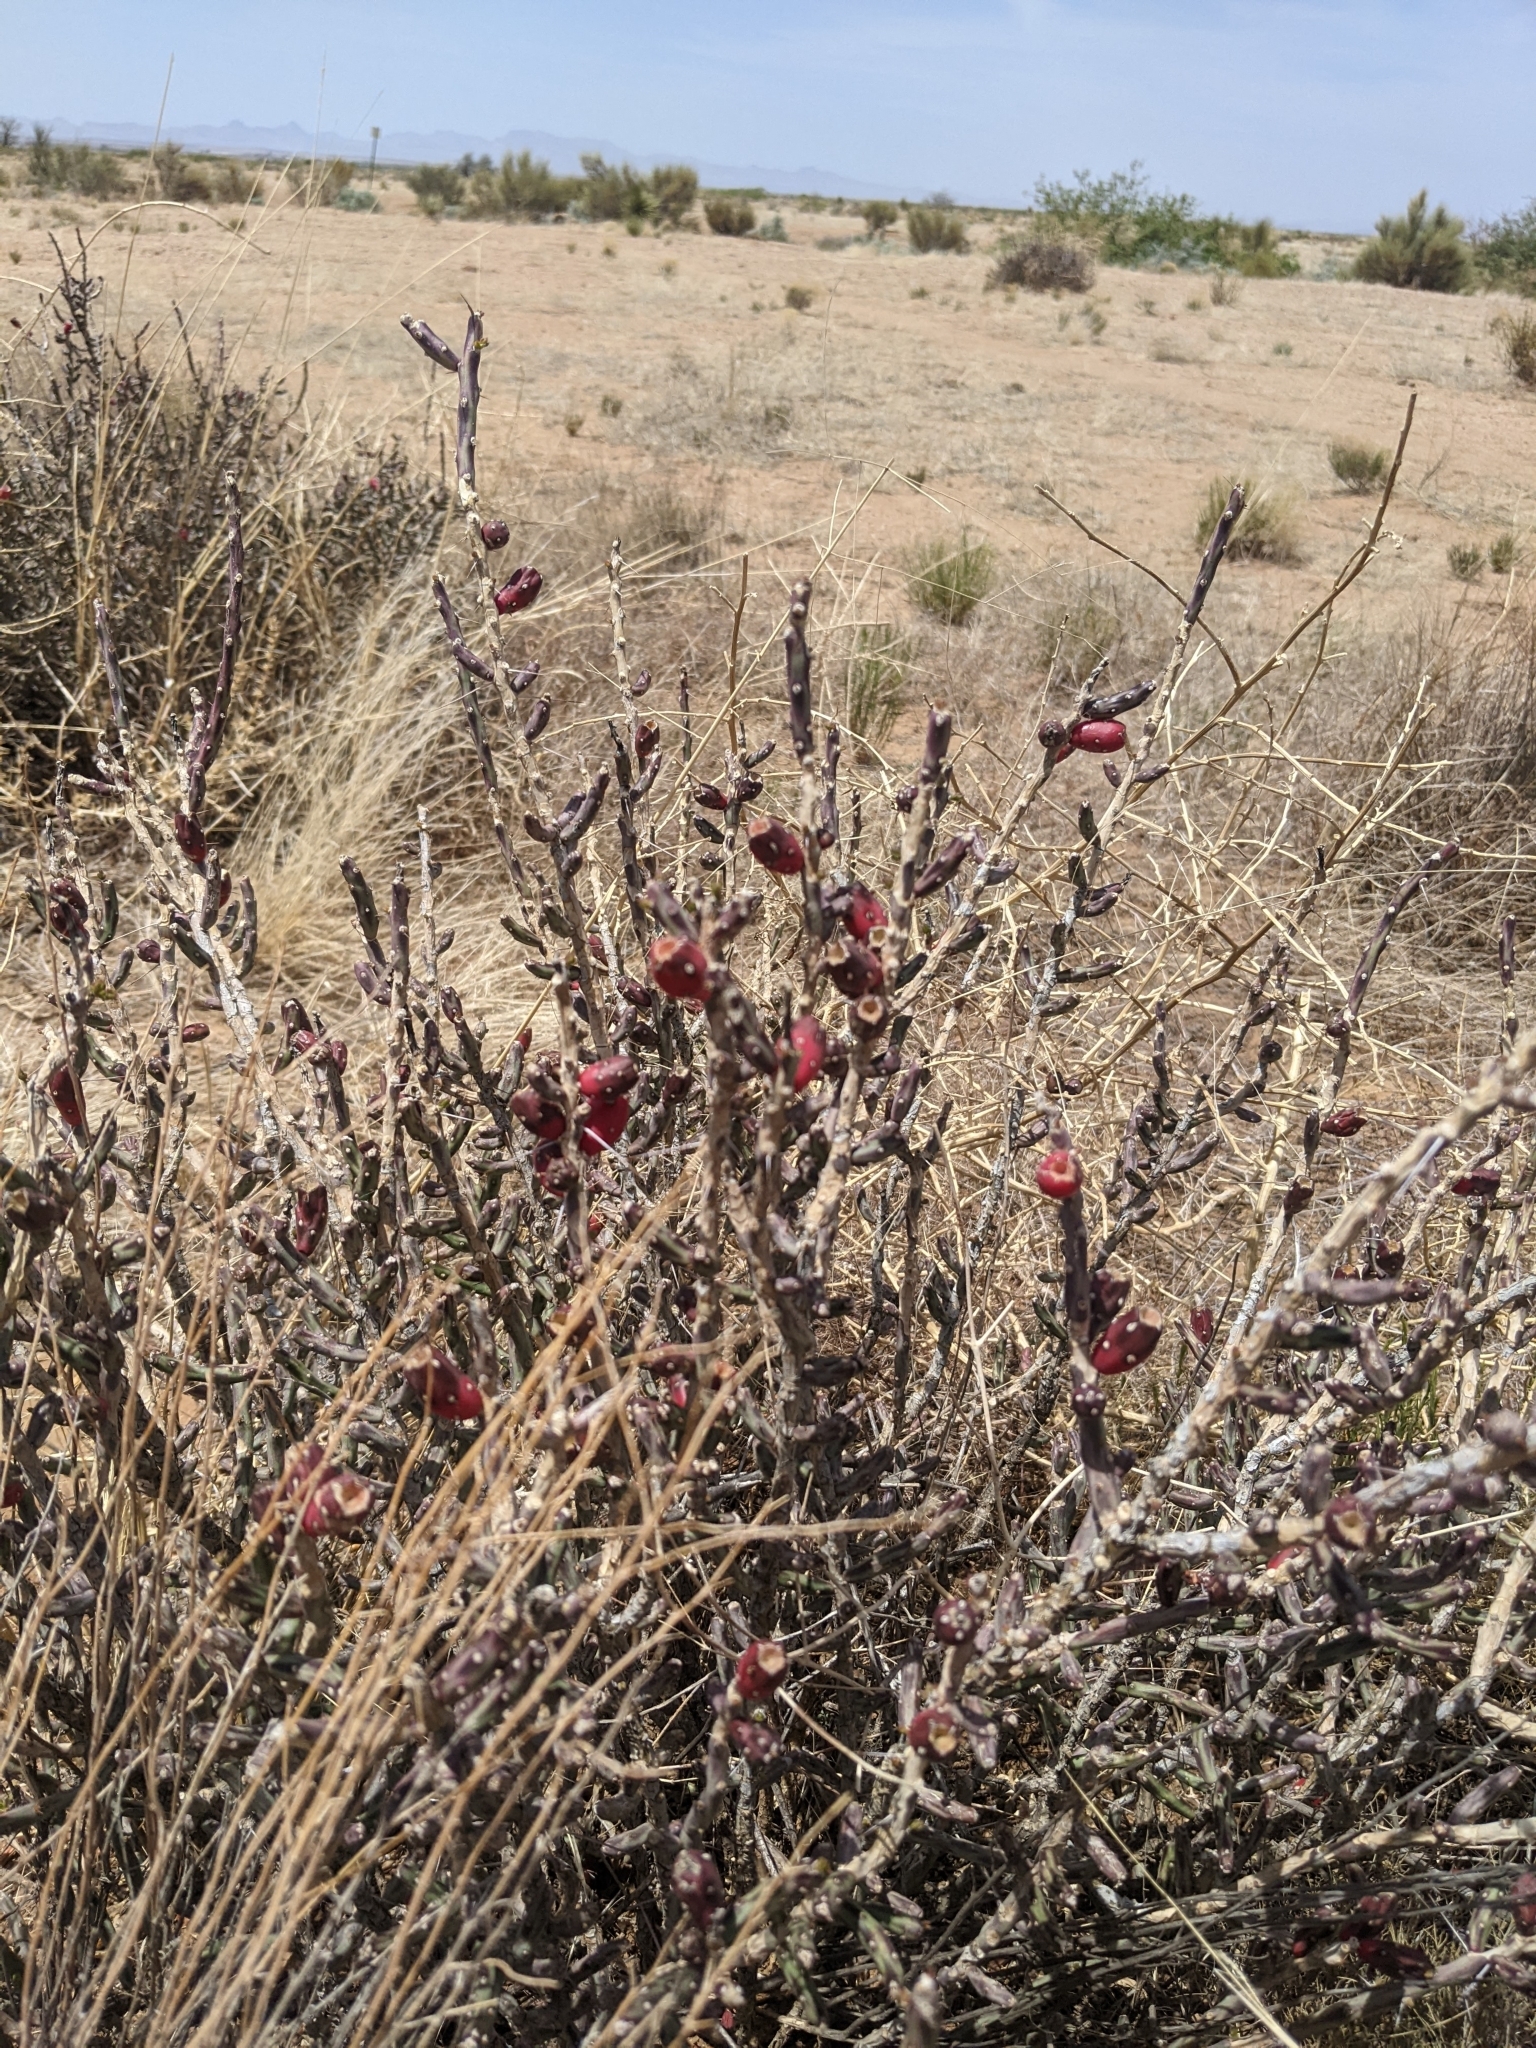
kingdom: Plantae
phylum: Tracheophyta
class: Magnoliopsida
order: Caryophyllales
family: Cactaceae
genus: Cylindropuntia
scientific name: Cylindropuntia leptocaulis
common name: Christmas cactus
